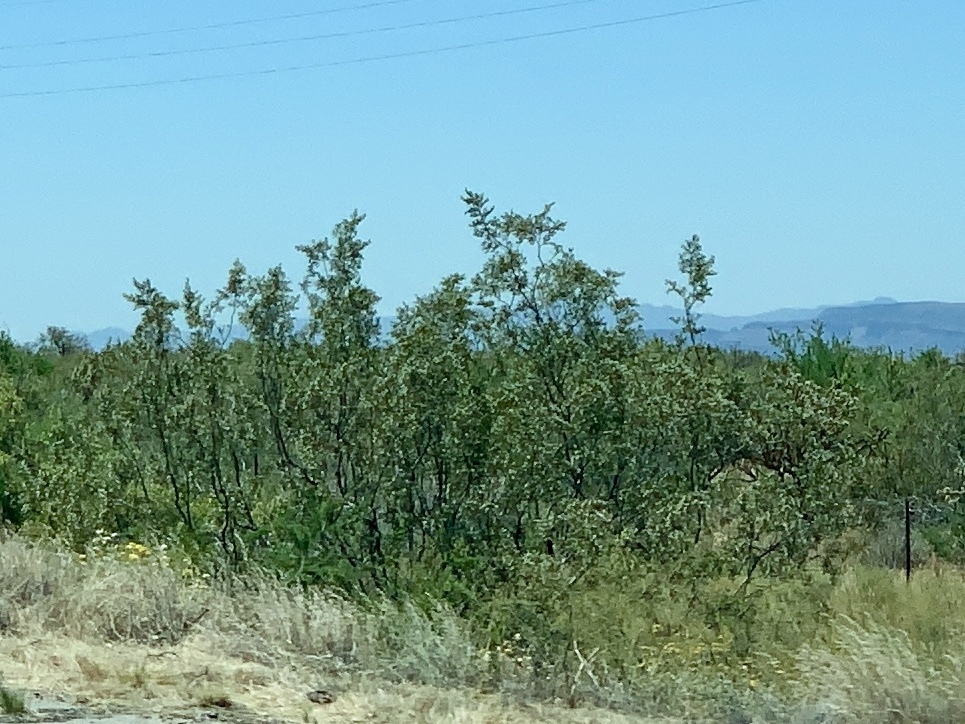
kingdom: Plantae
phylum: Tracheophyta
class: Magnoliopsida
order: Zygophyllales
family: Zygophyllaceae
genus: Larrea
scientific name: Larrea tridentata
